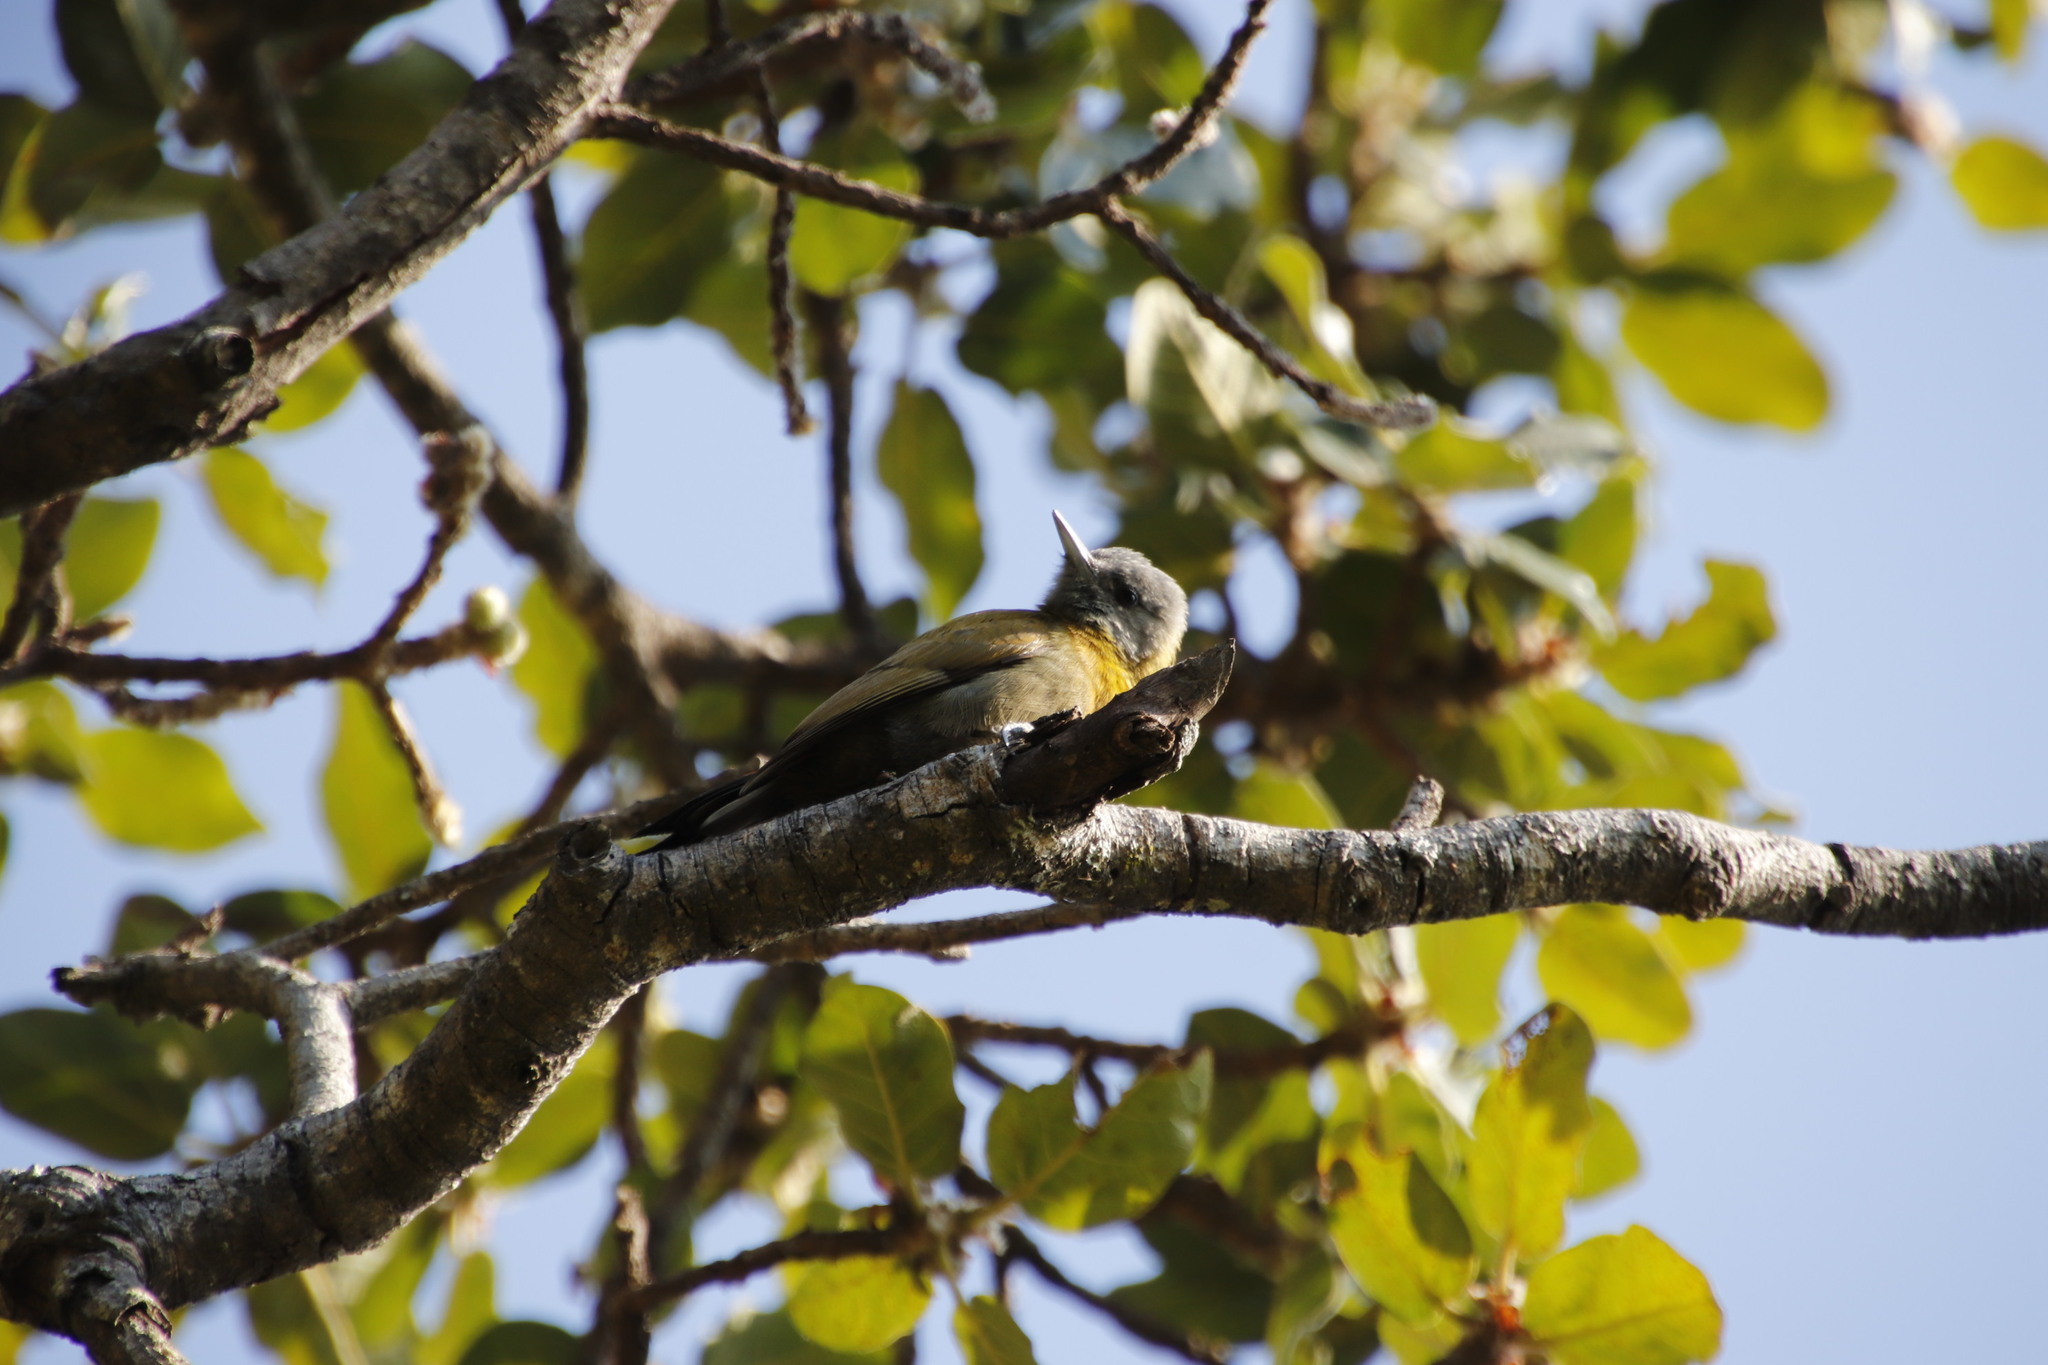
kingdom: Plantae
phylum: Tracheophyta
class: Magnoliopsida
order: Rosales
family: Moraceae
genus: Ficus
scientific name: Ficus glumosa
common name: Hairy rock fig
